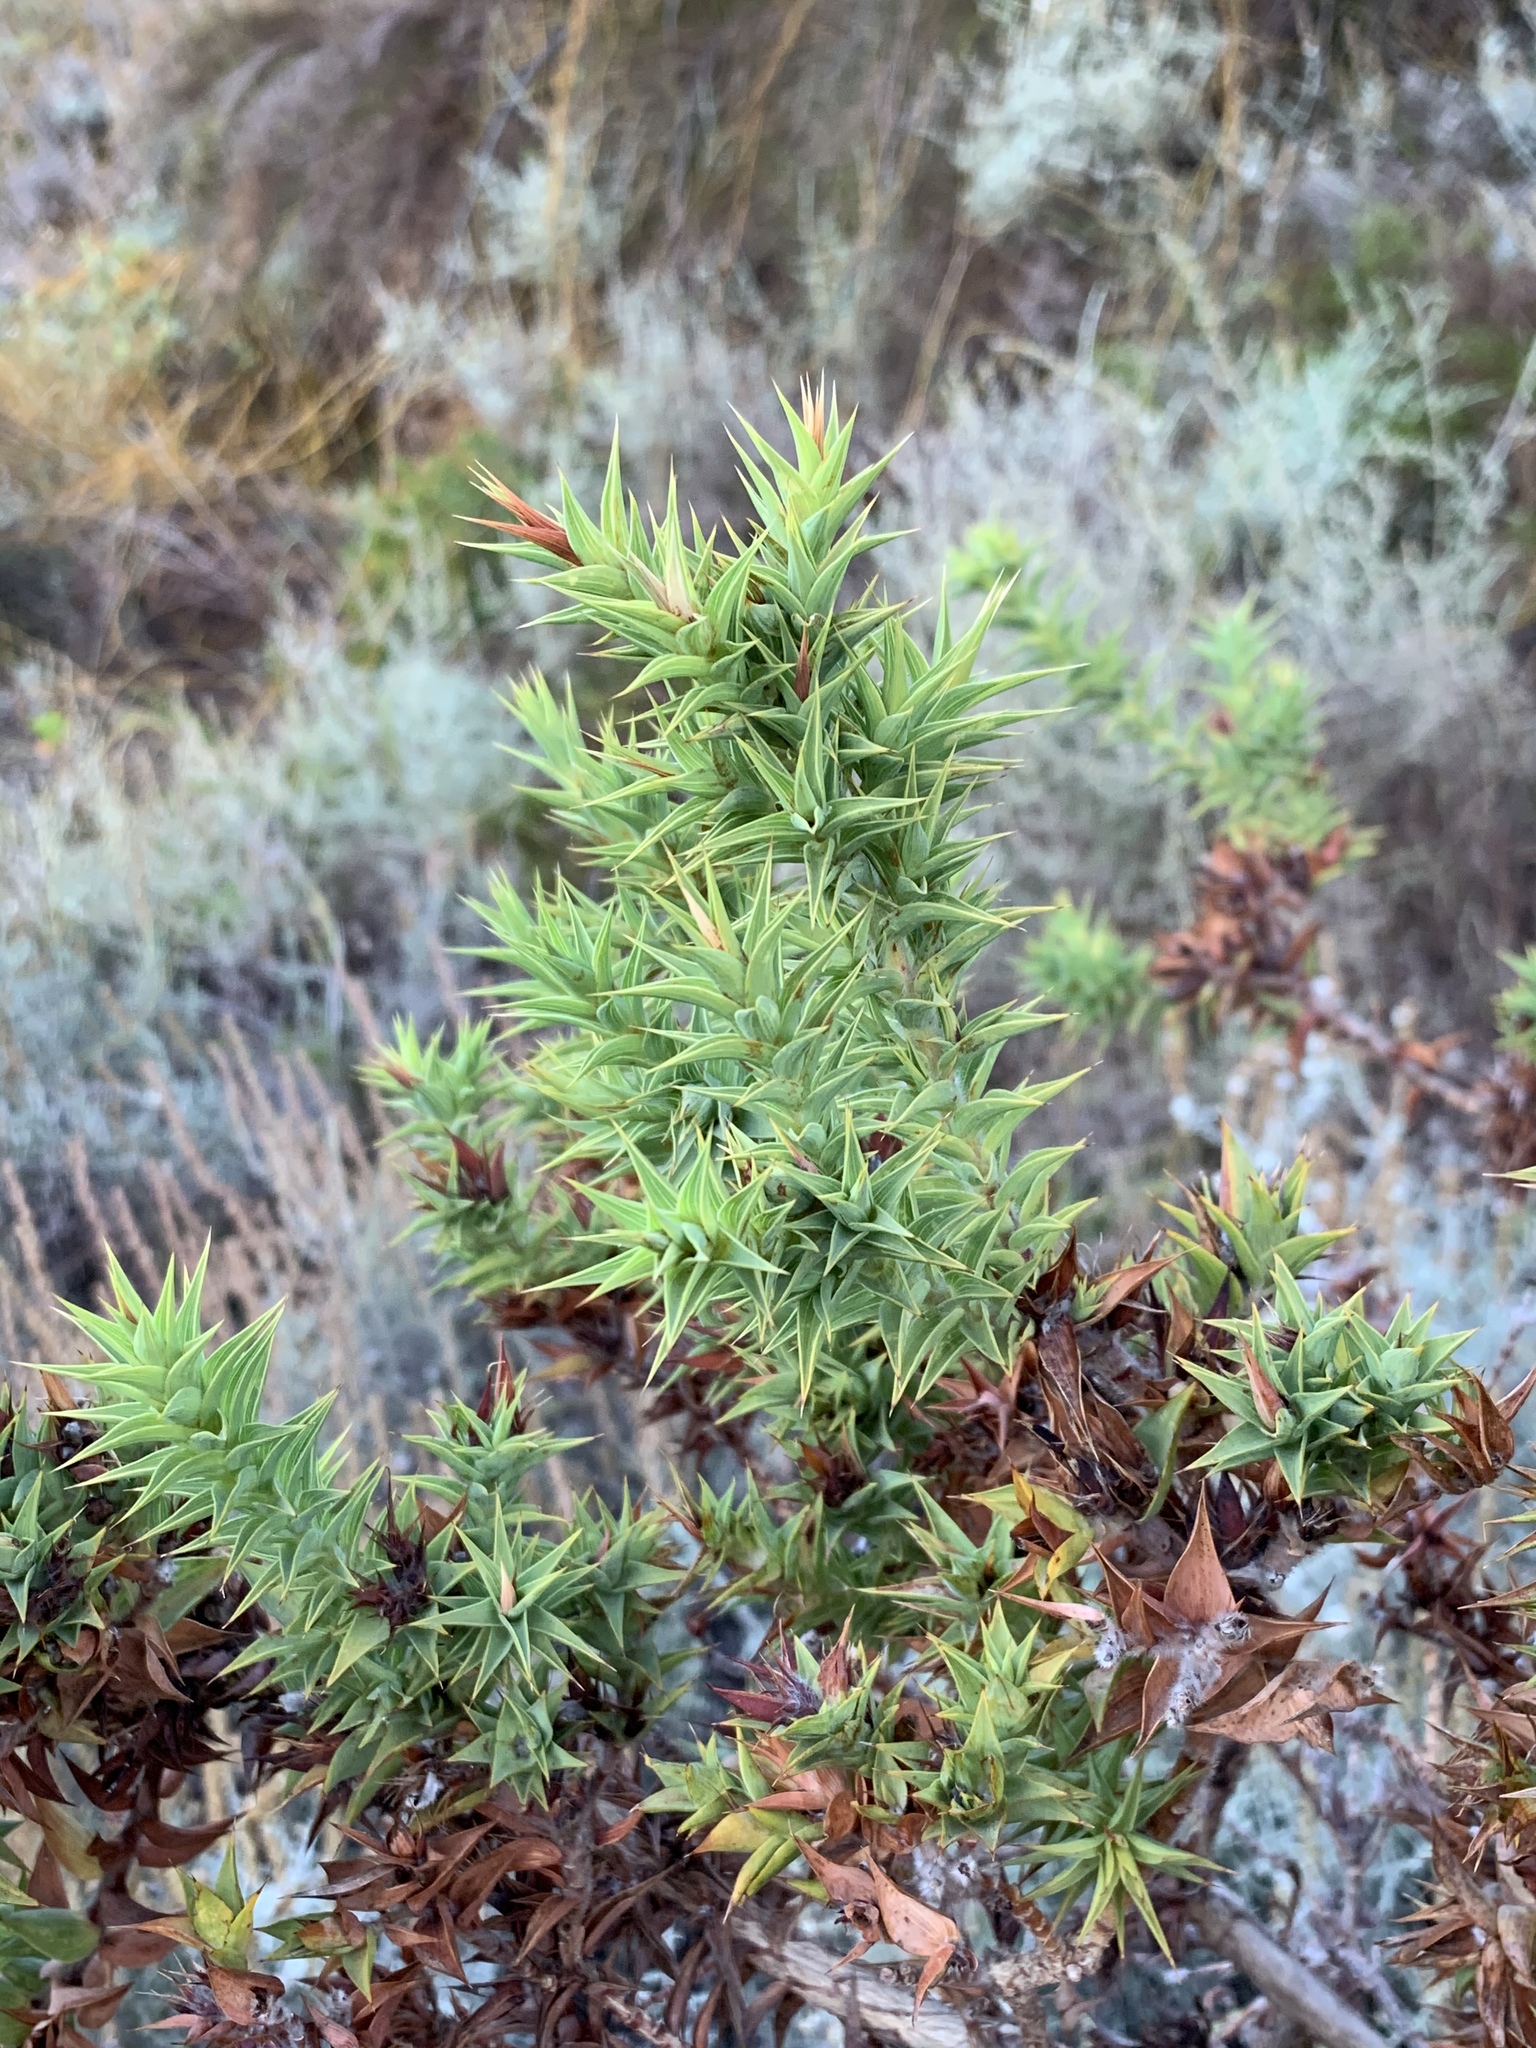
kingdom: Plantae
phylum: Tracheophyta
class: Magnoliopsida
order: Fabales
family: Fabaceae
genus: Aspalathus
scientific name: Aspalathus cordata
